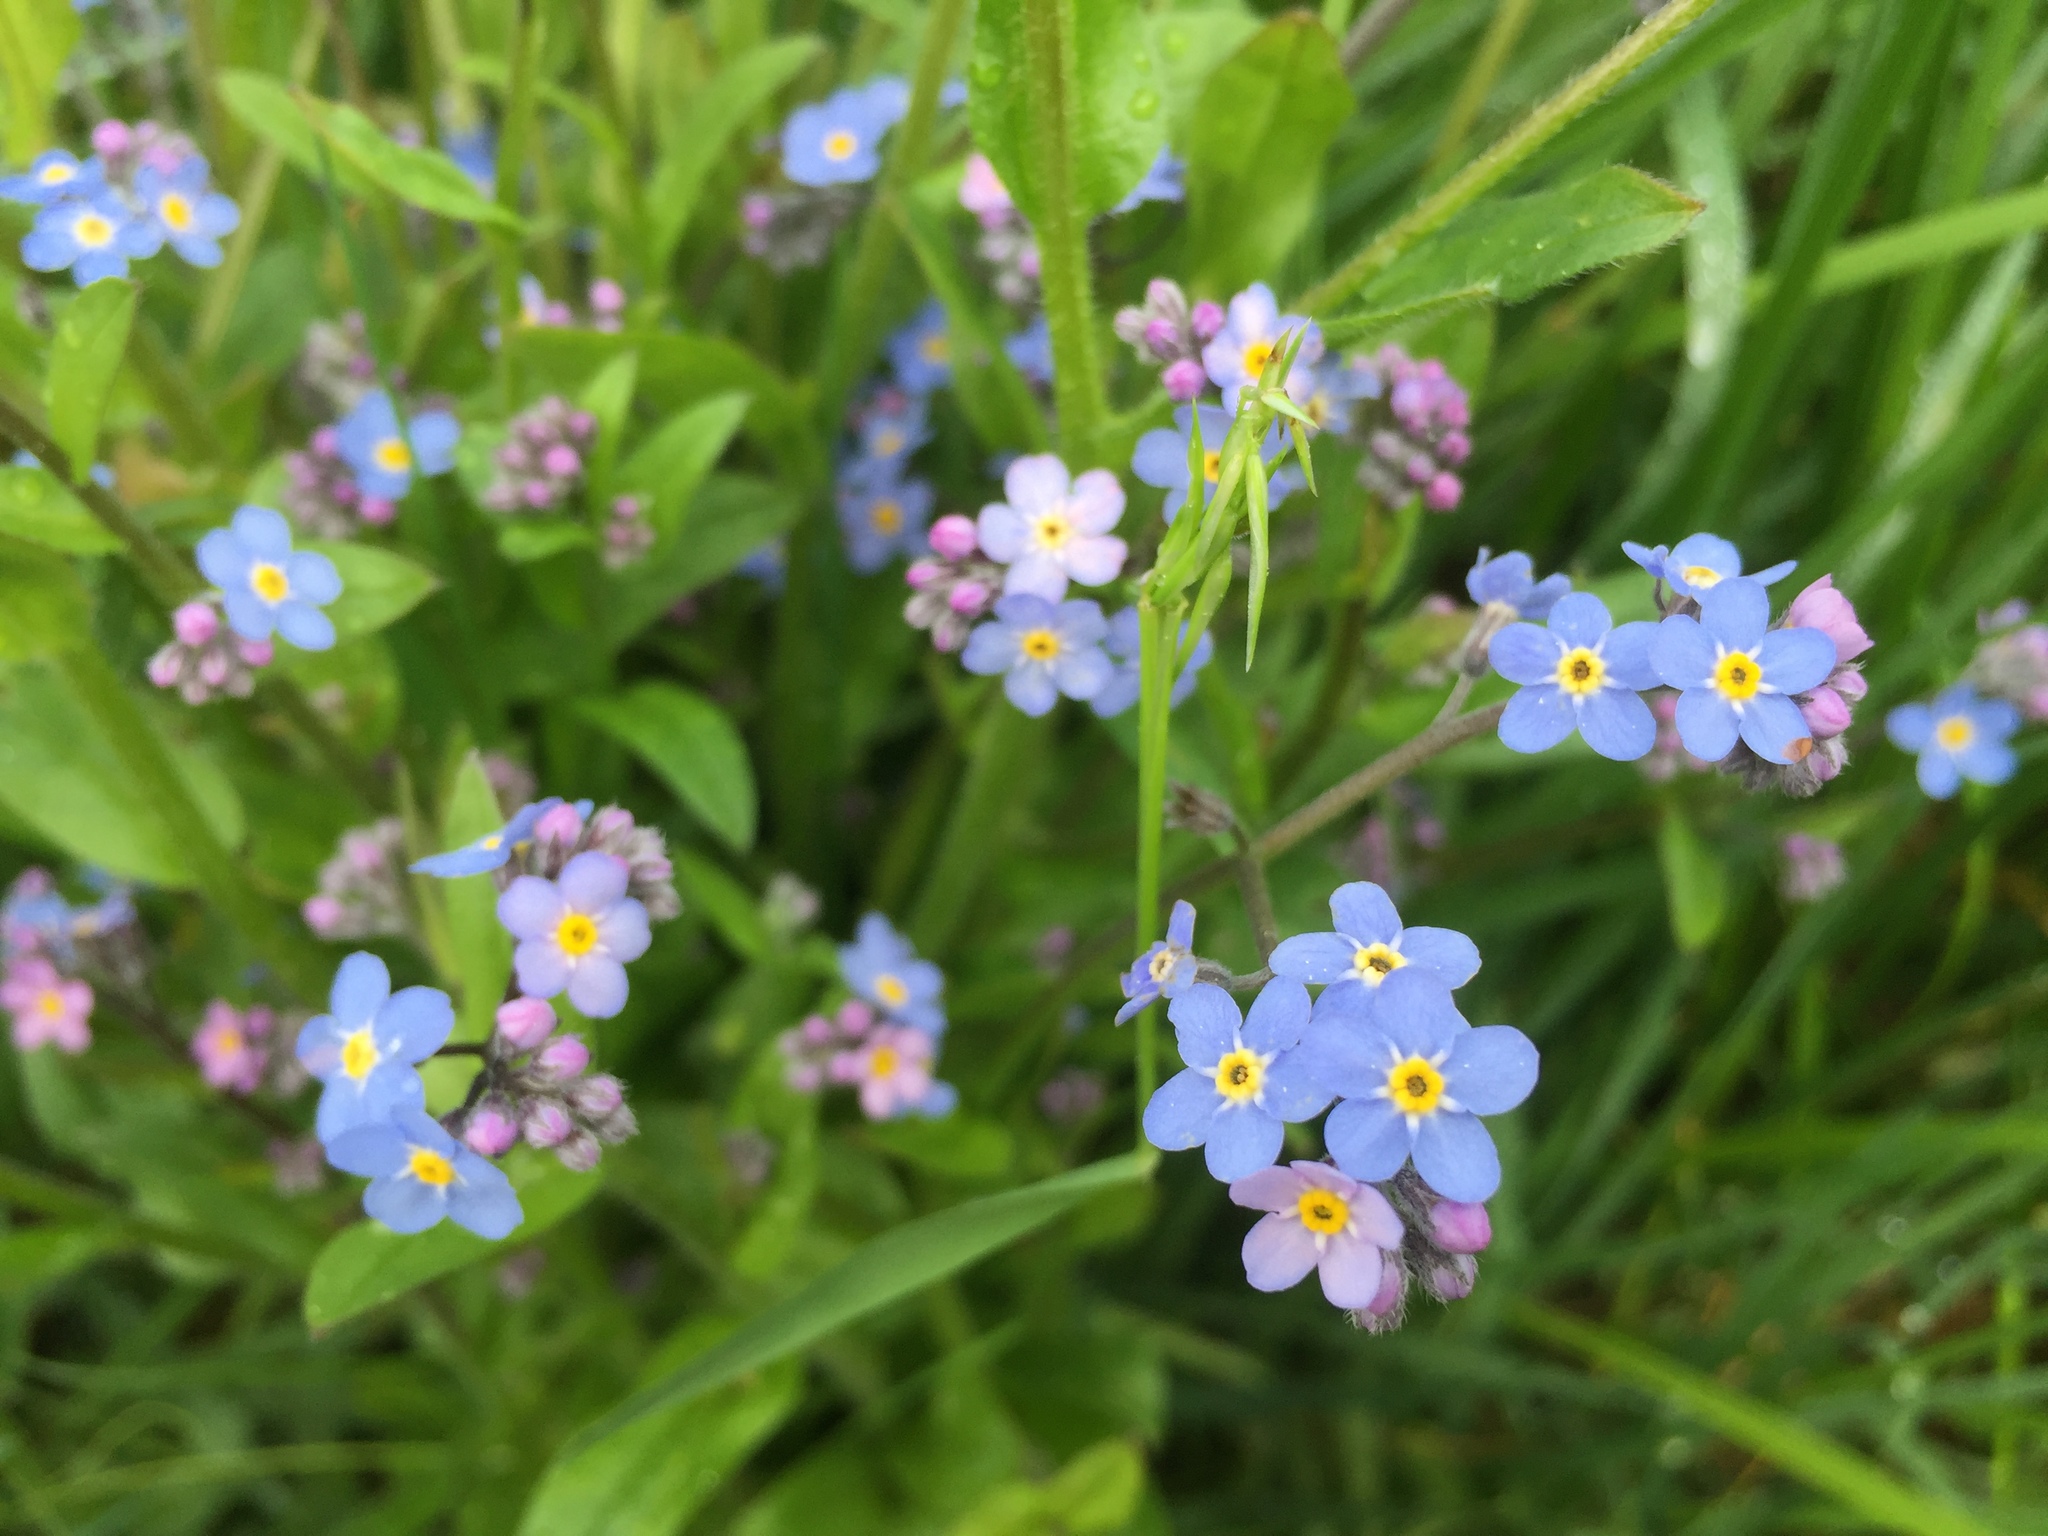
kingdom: Plantae
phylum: Tracheophyta
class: Magnoliopsida
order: Boraginales
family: Boraginaceae
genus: Myosotis
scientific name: Myosotis scorpioides
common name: Water forget-me-not
